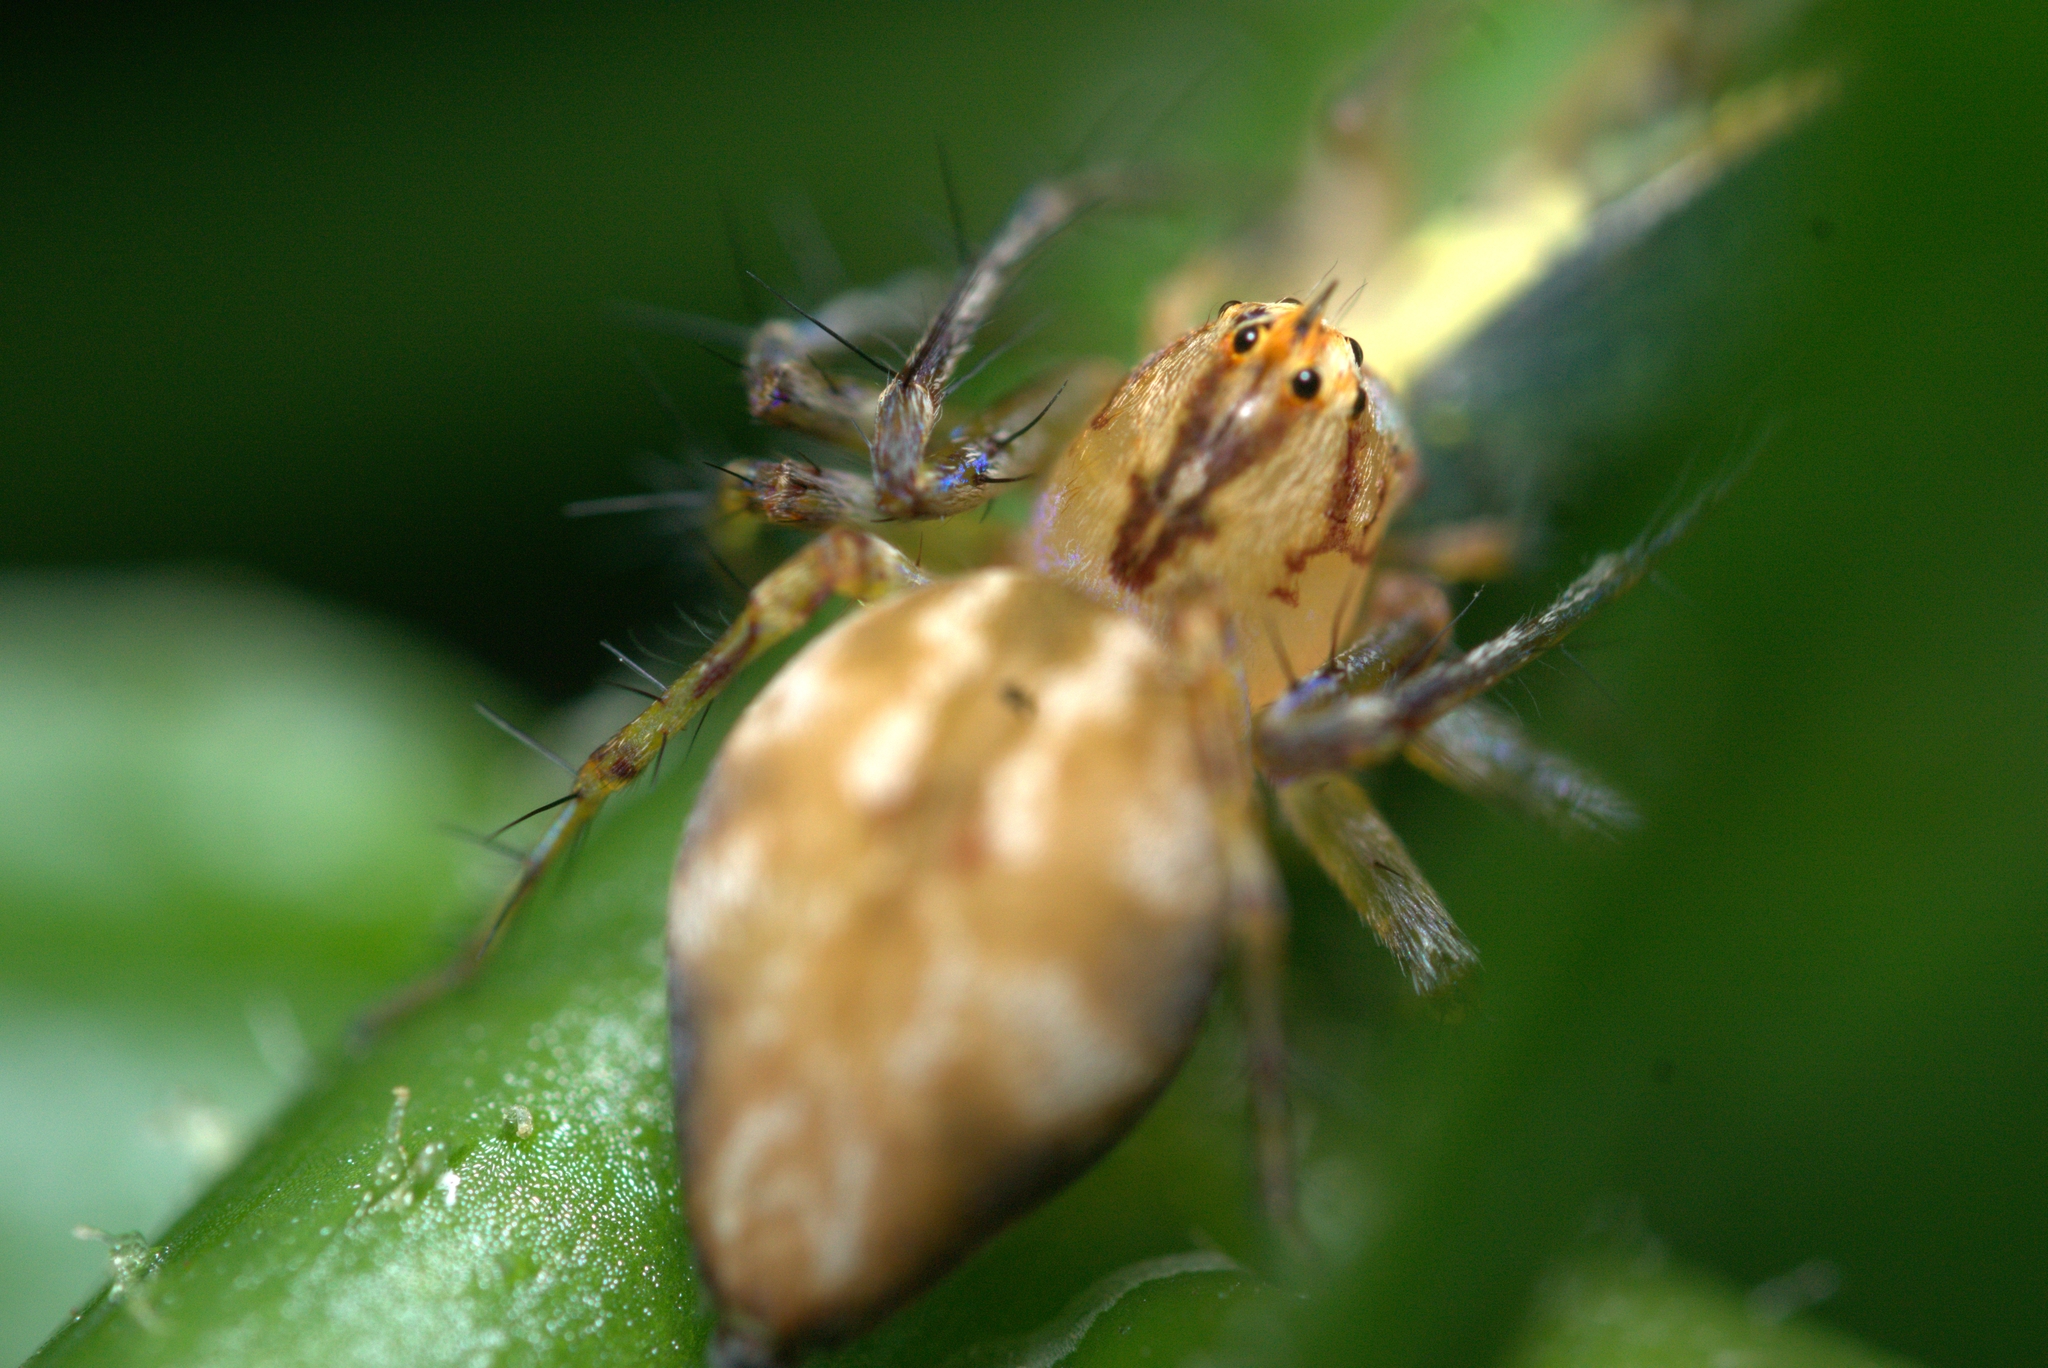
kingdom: Animalia
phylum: Arthropoda
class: Arachnida
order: Araneae
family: Oxyopidae
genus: Oxyopes
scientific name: Oxyopes incertus
